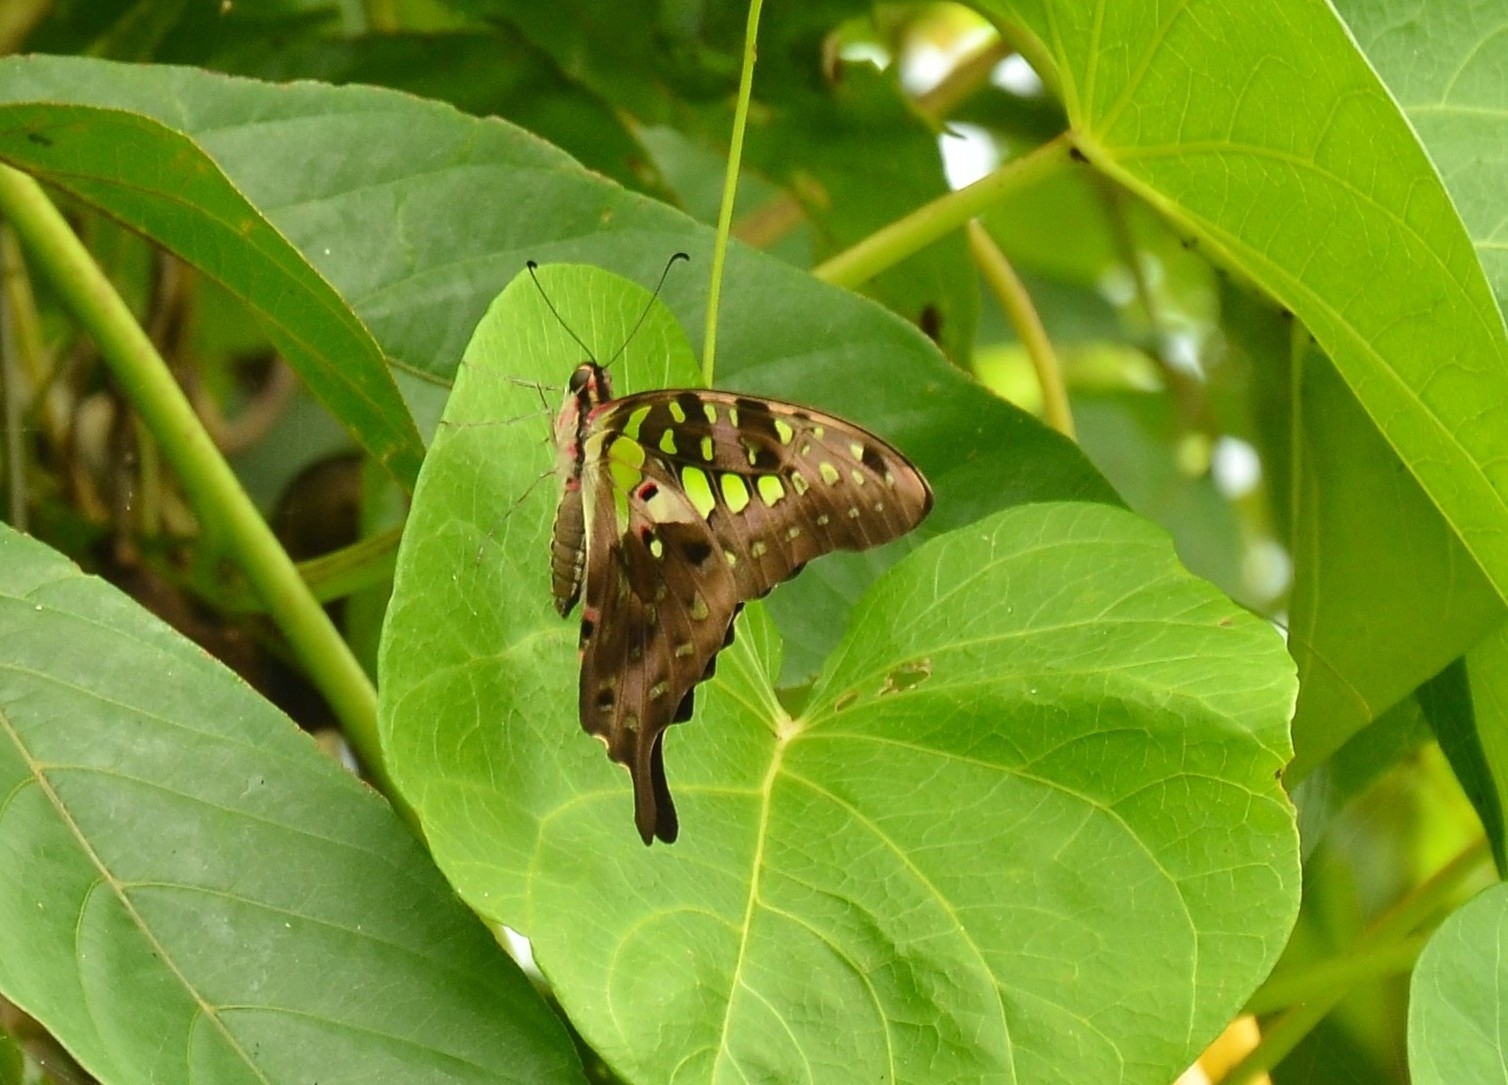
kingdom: Animalia
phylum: Arthropoda
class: Insecta
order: Lepidoptera
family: Papilionidae
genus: Graphium
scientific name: Graphium agamemnon
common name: Tailed jay
